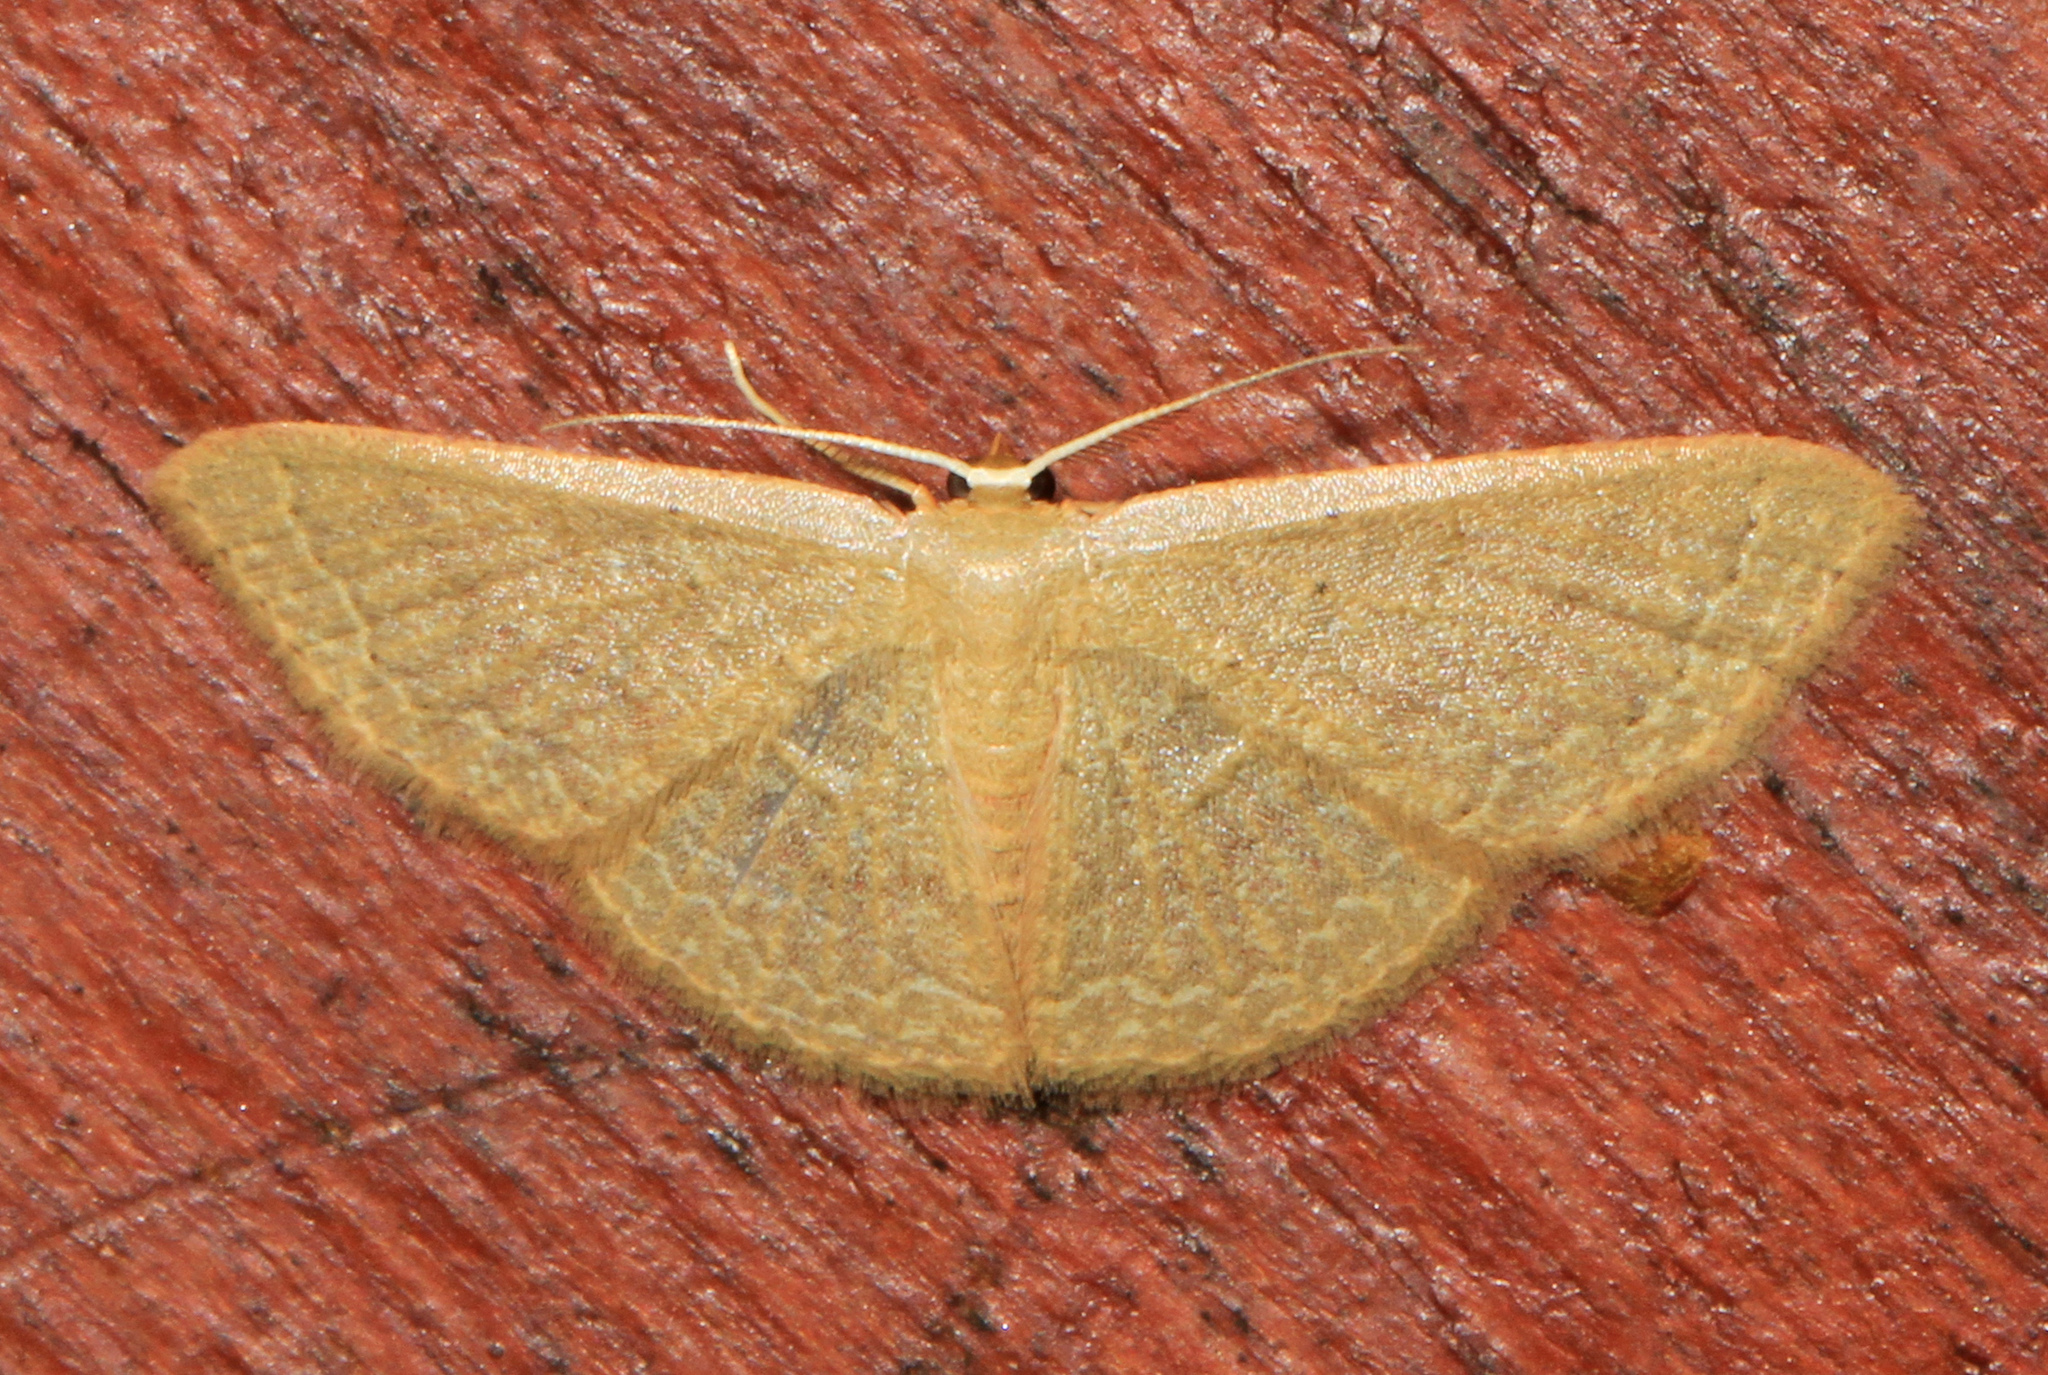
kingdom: Animalia
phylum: Arthropoda
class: Insecta
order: Lepidoptera
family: Geometridae
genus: Pleuroprucha
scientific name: Pleuroprucha insulsaria
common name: Common tan wave
